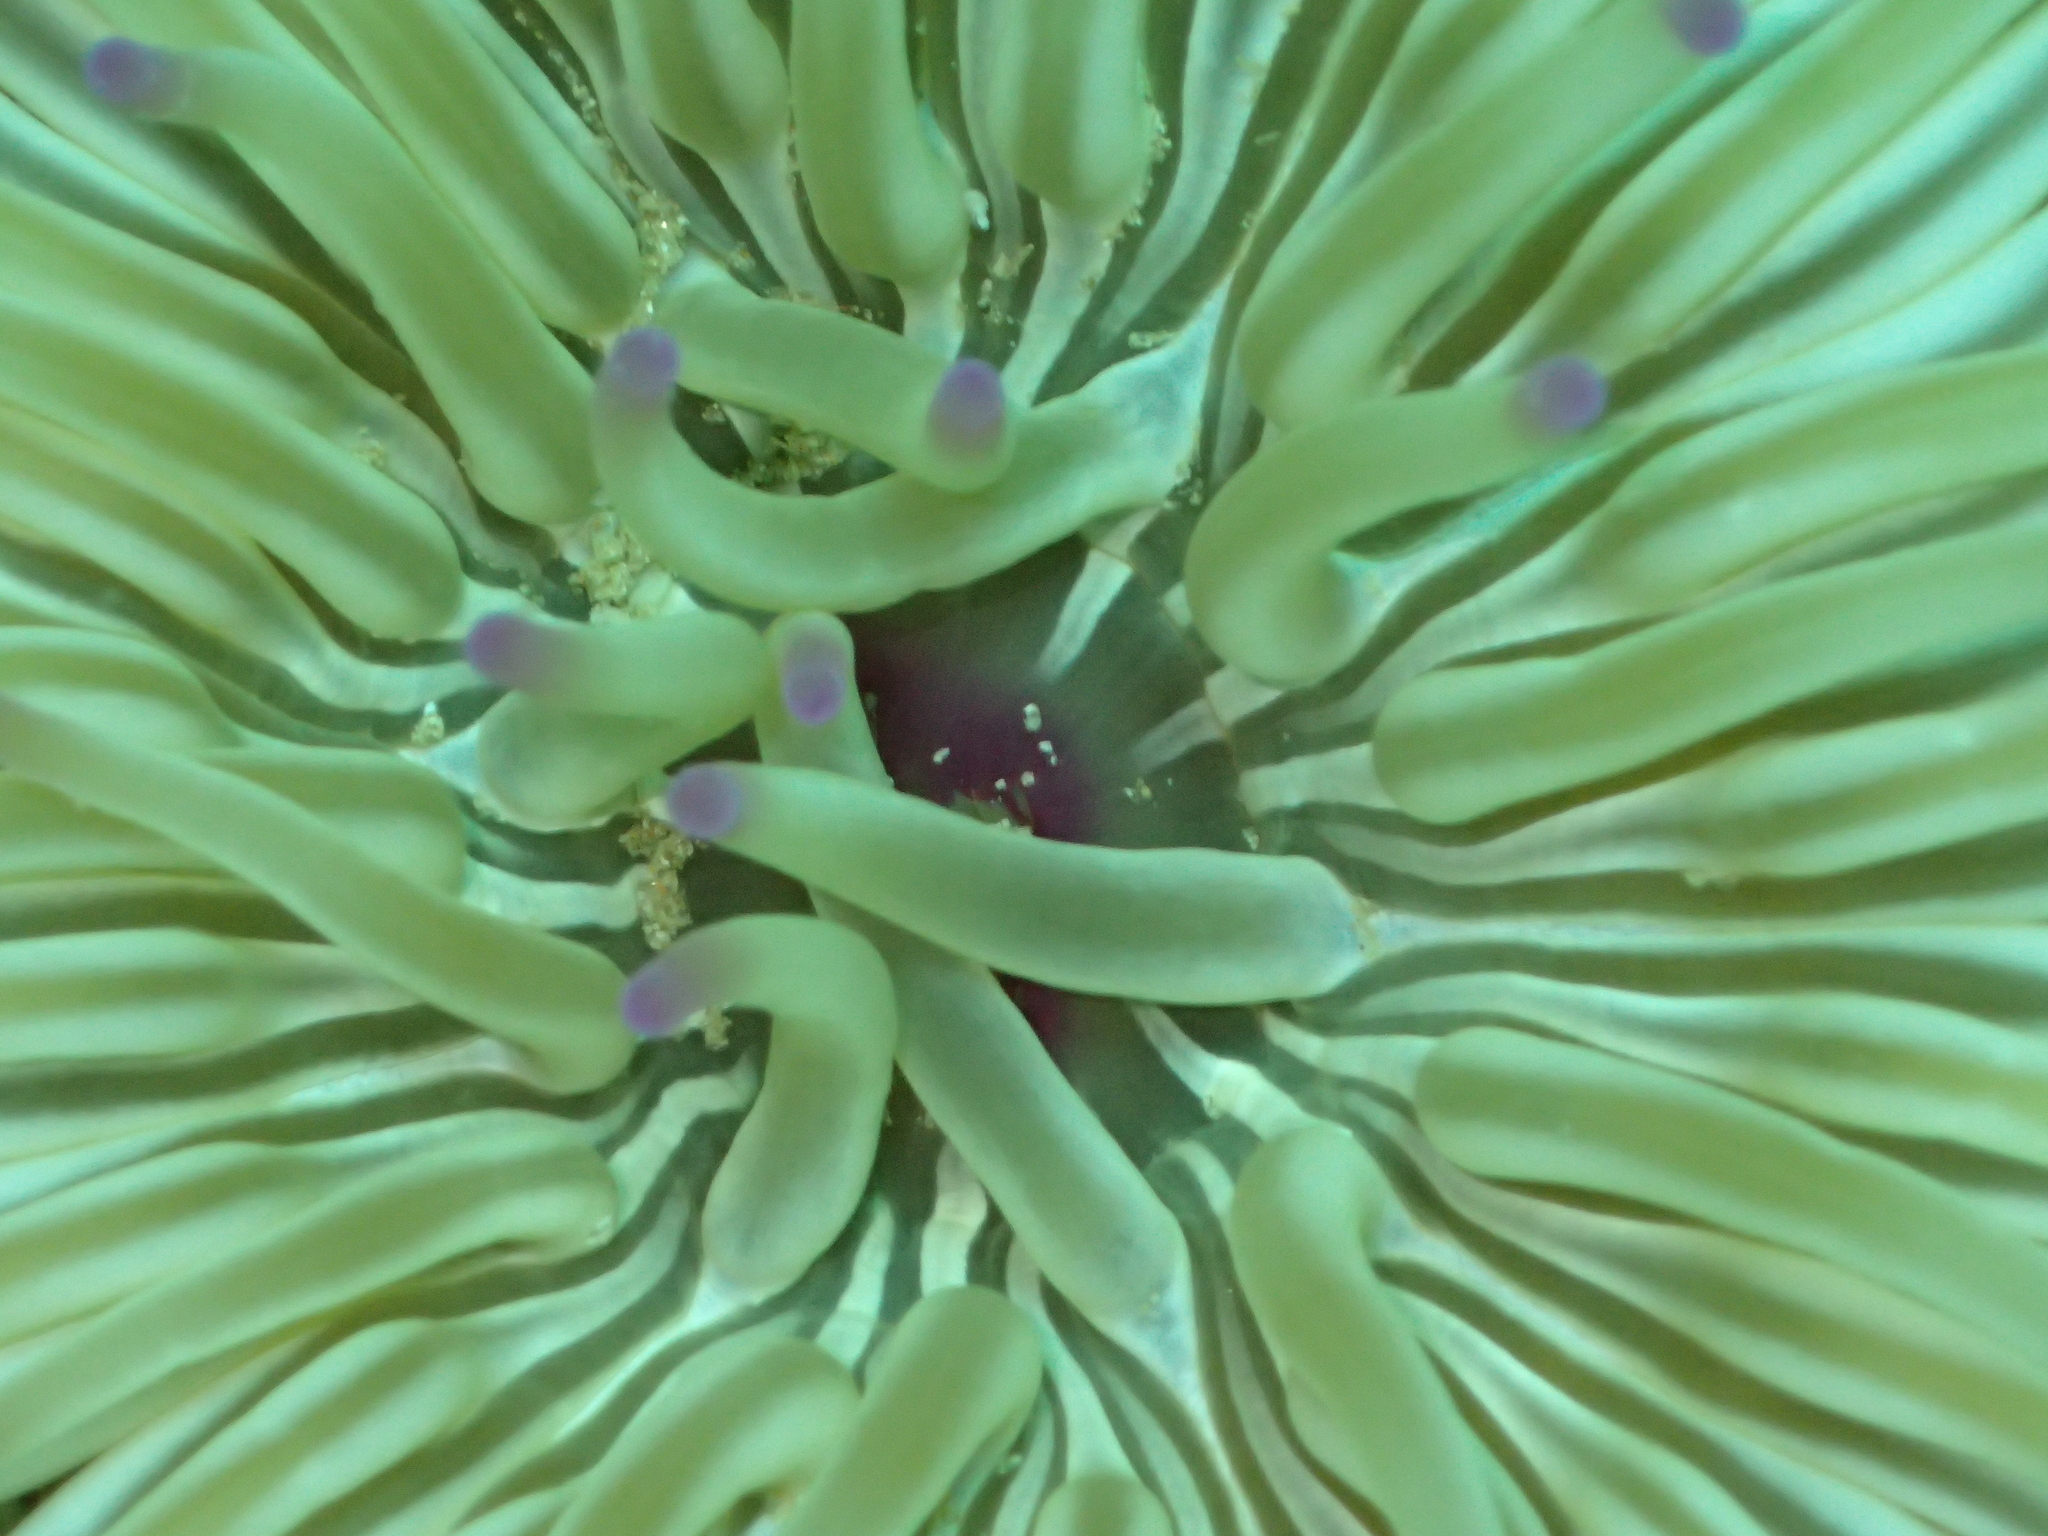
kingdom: Animalia
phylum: Cnidaria
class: Anthozoa
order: Actiniaria
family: Actiniidae
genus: Condylactis
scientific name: Condylactis aurantiaca
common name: Golden anemone
